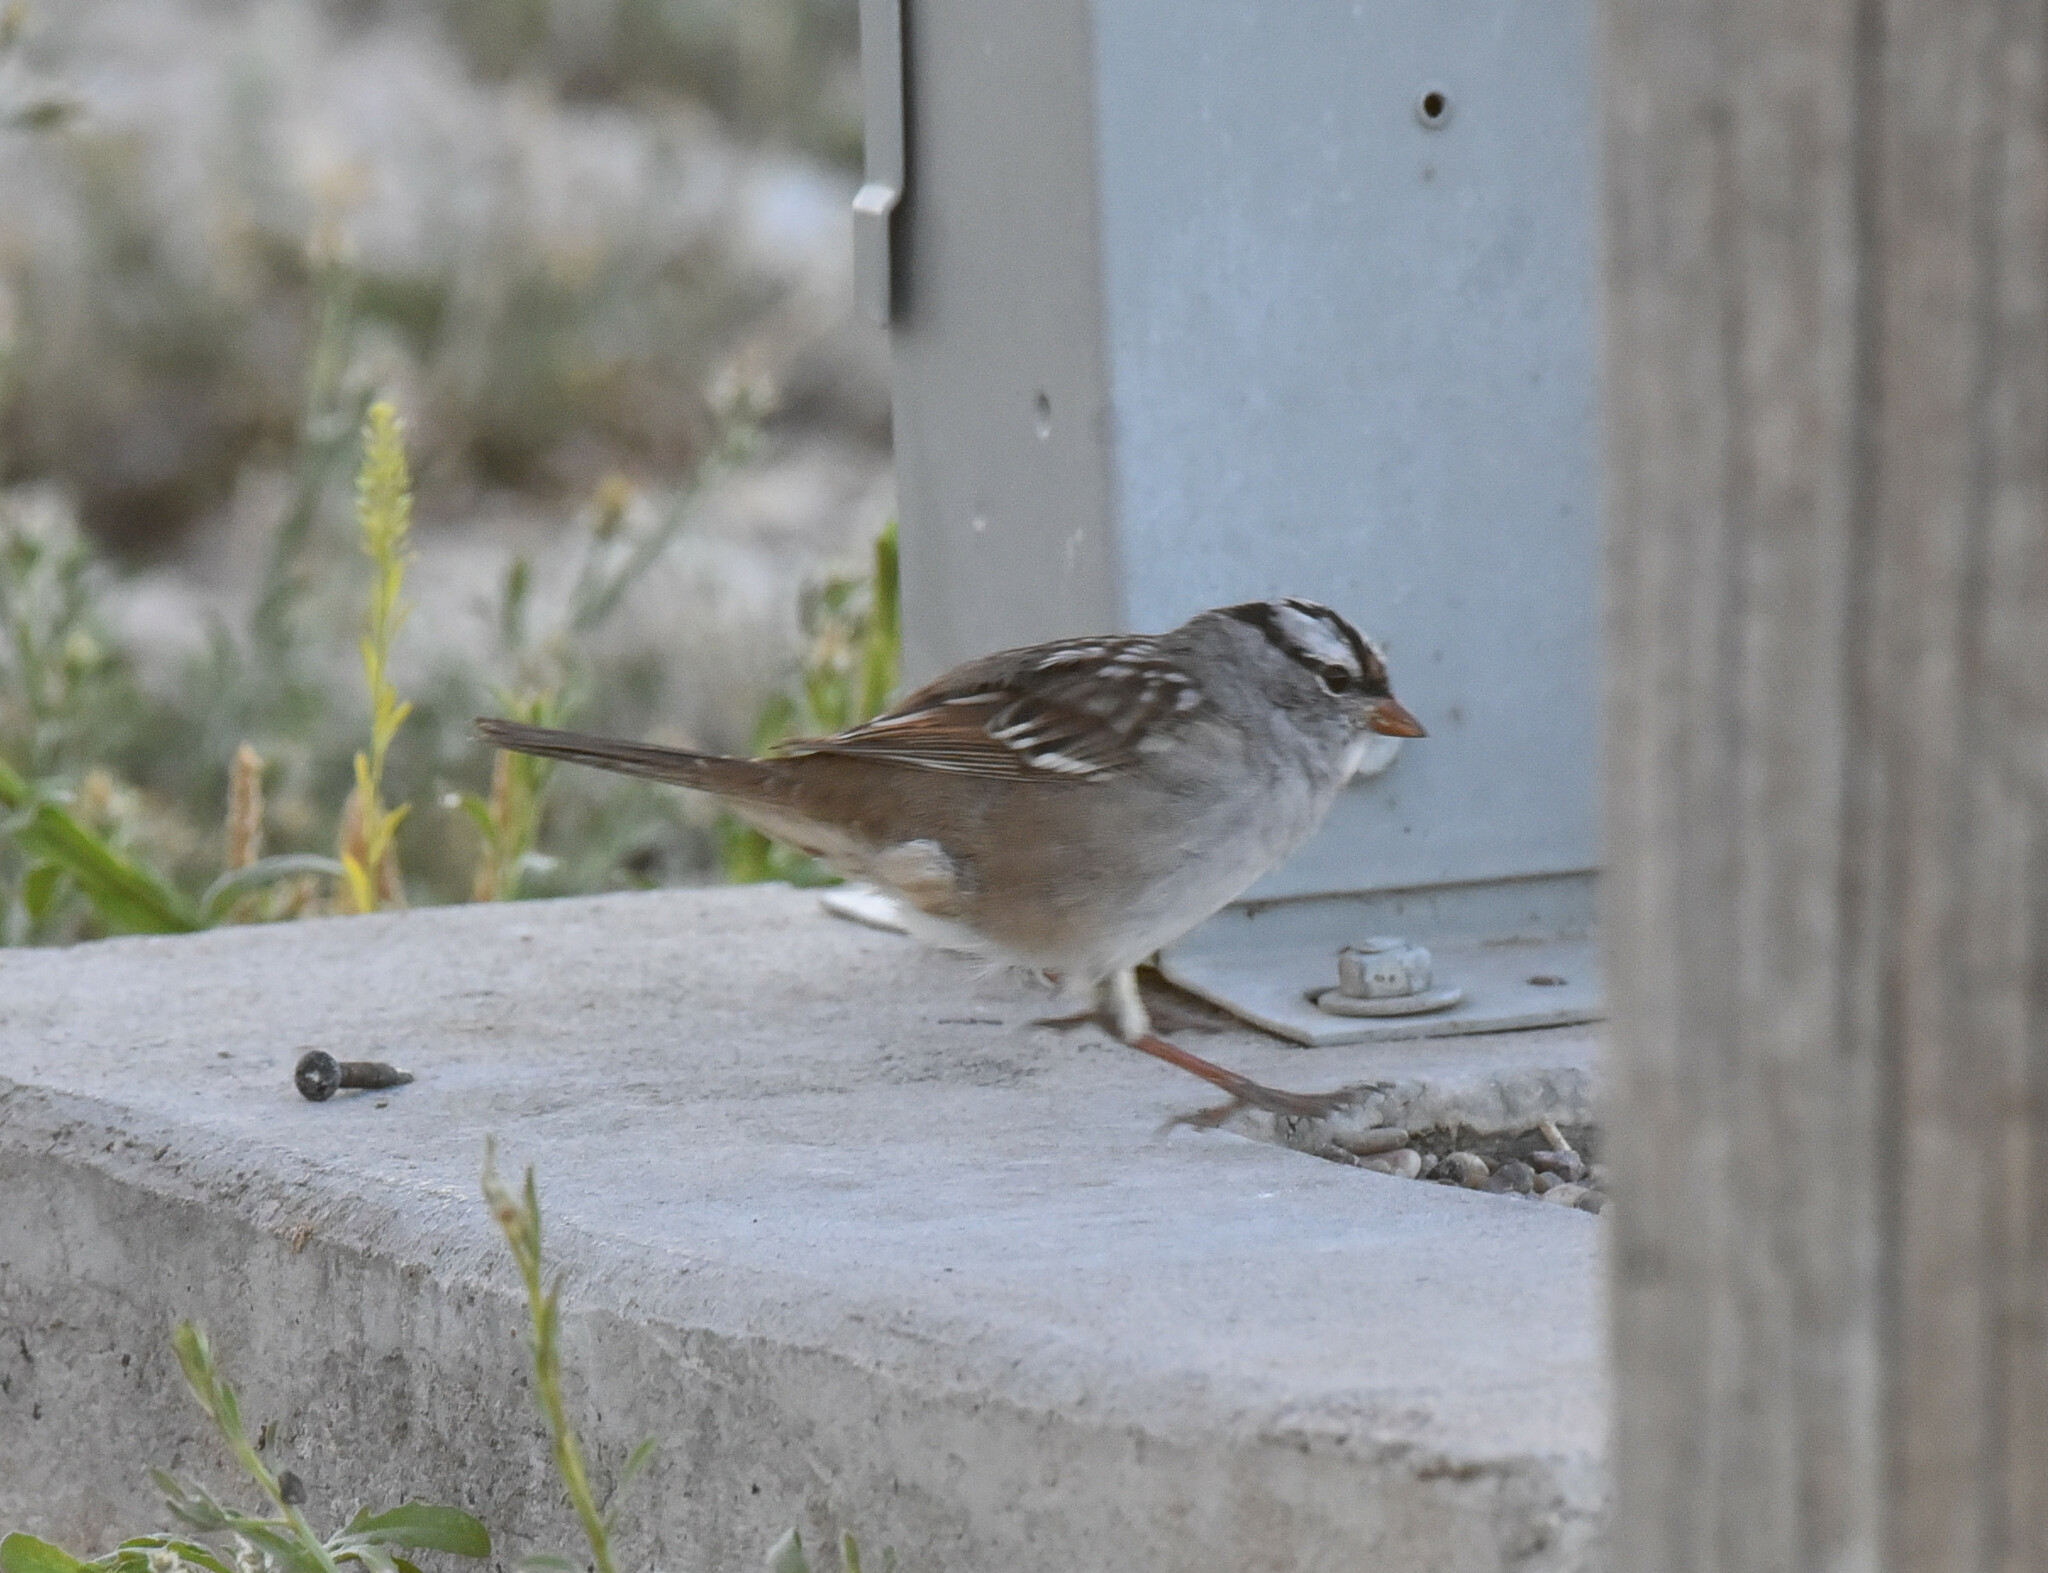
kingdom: Animalia
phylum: Chordata
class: Aves
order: Passeriformes
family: Passerellidae
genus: Zonotrichia
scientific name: Zonotrichia leucophrys
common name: White-crowned sparrow
